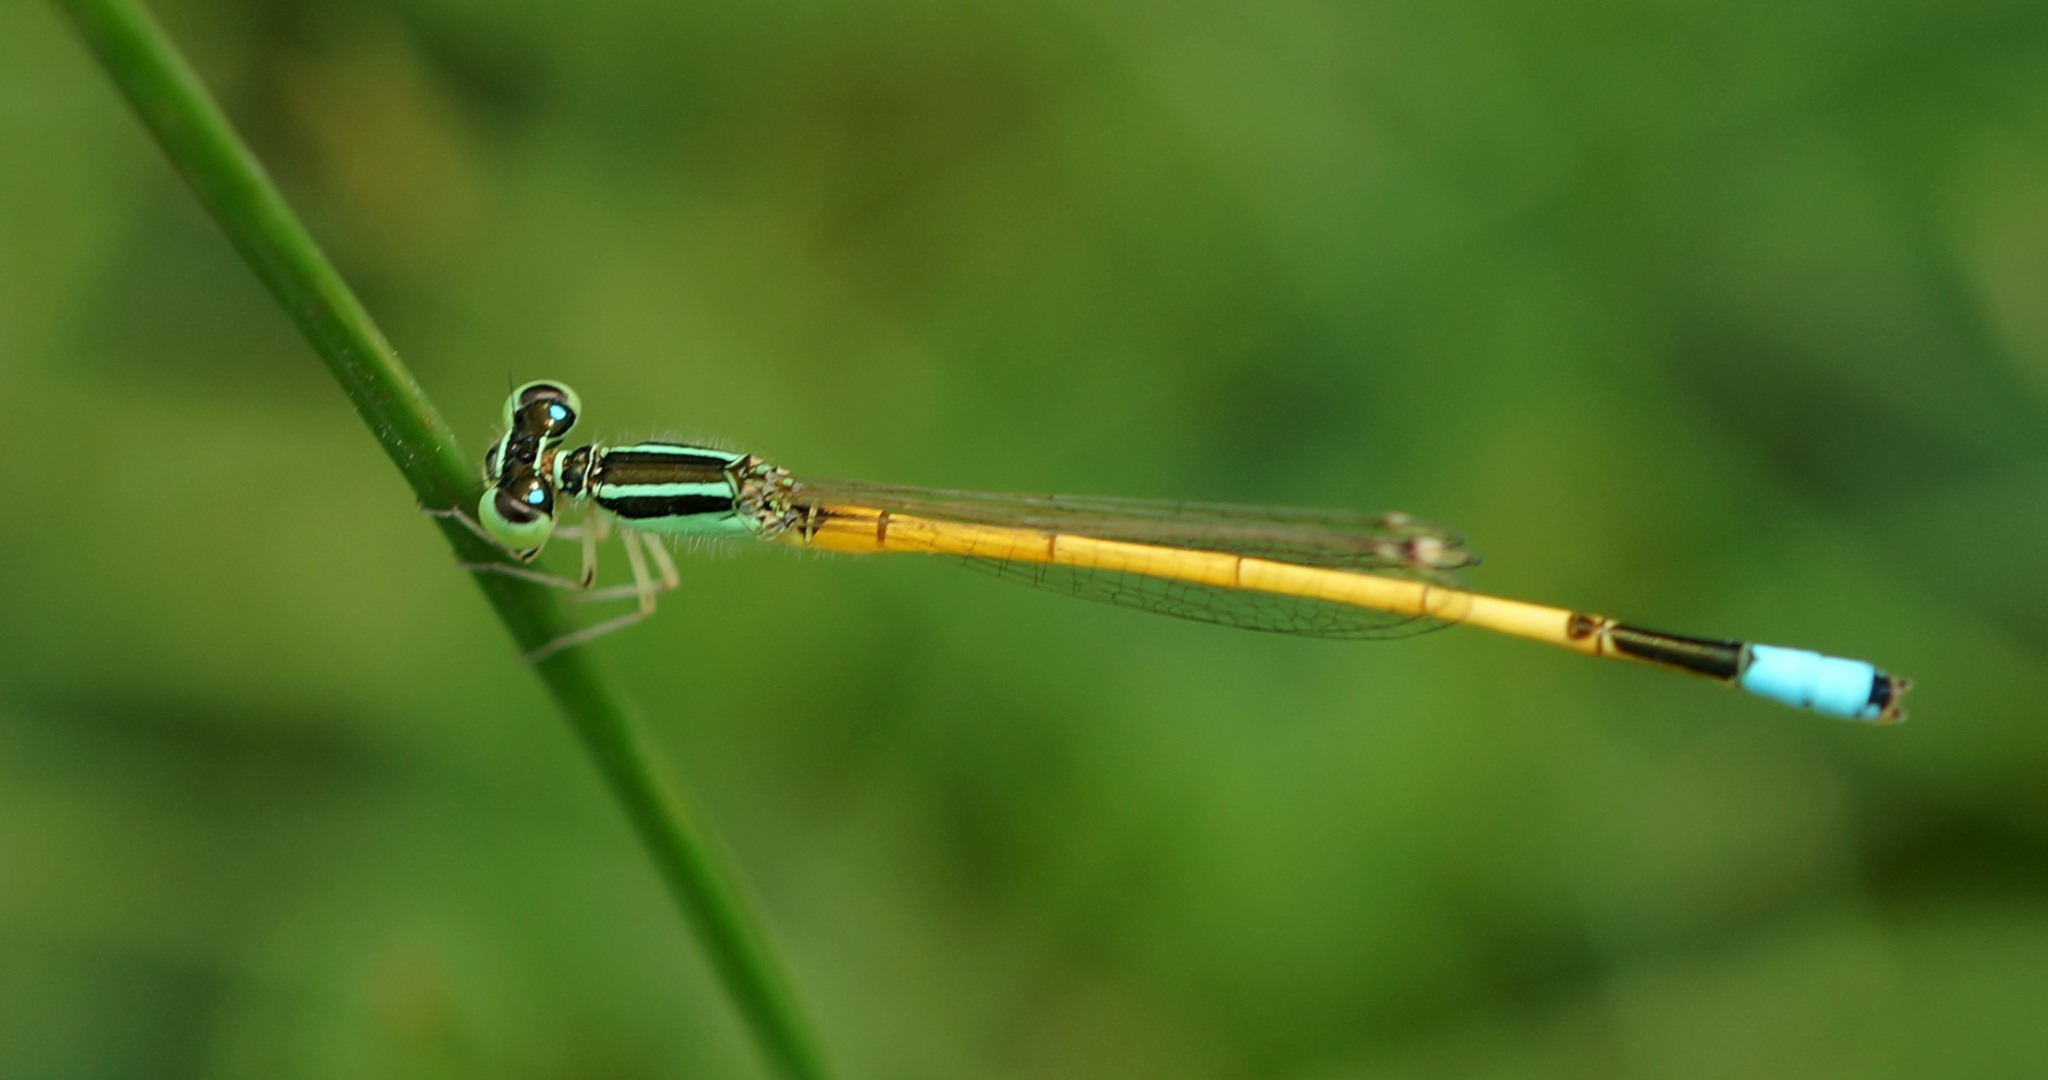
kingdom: Animalia
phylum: Arthropoda
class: Insecta
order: Odonata
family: Coenagrionidae
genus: Ischnura
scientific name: Ischnura rubilio
